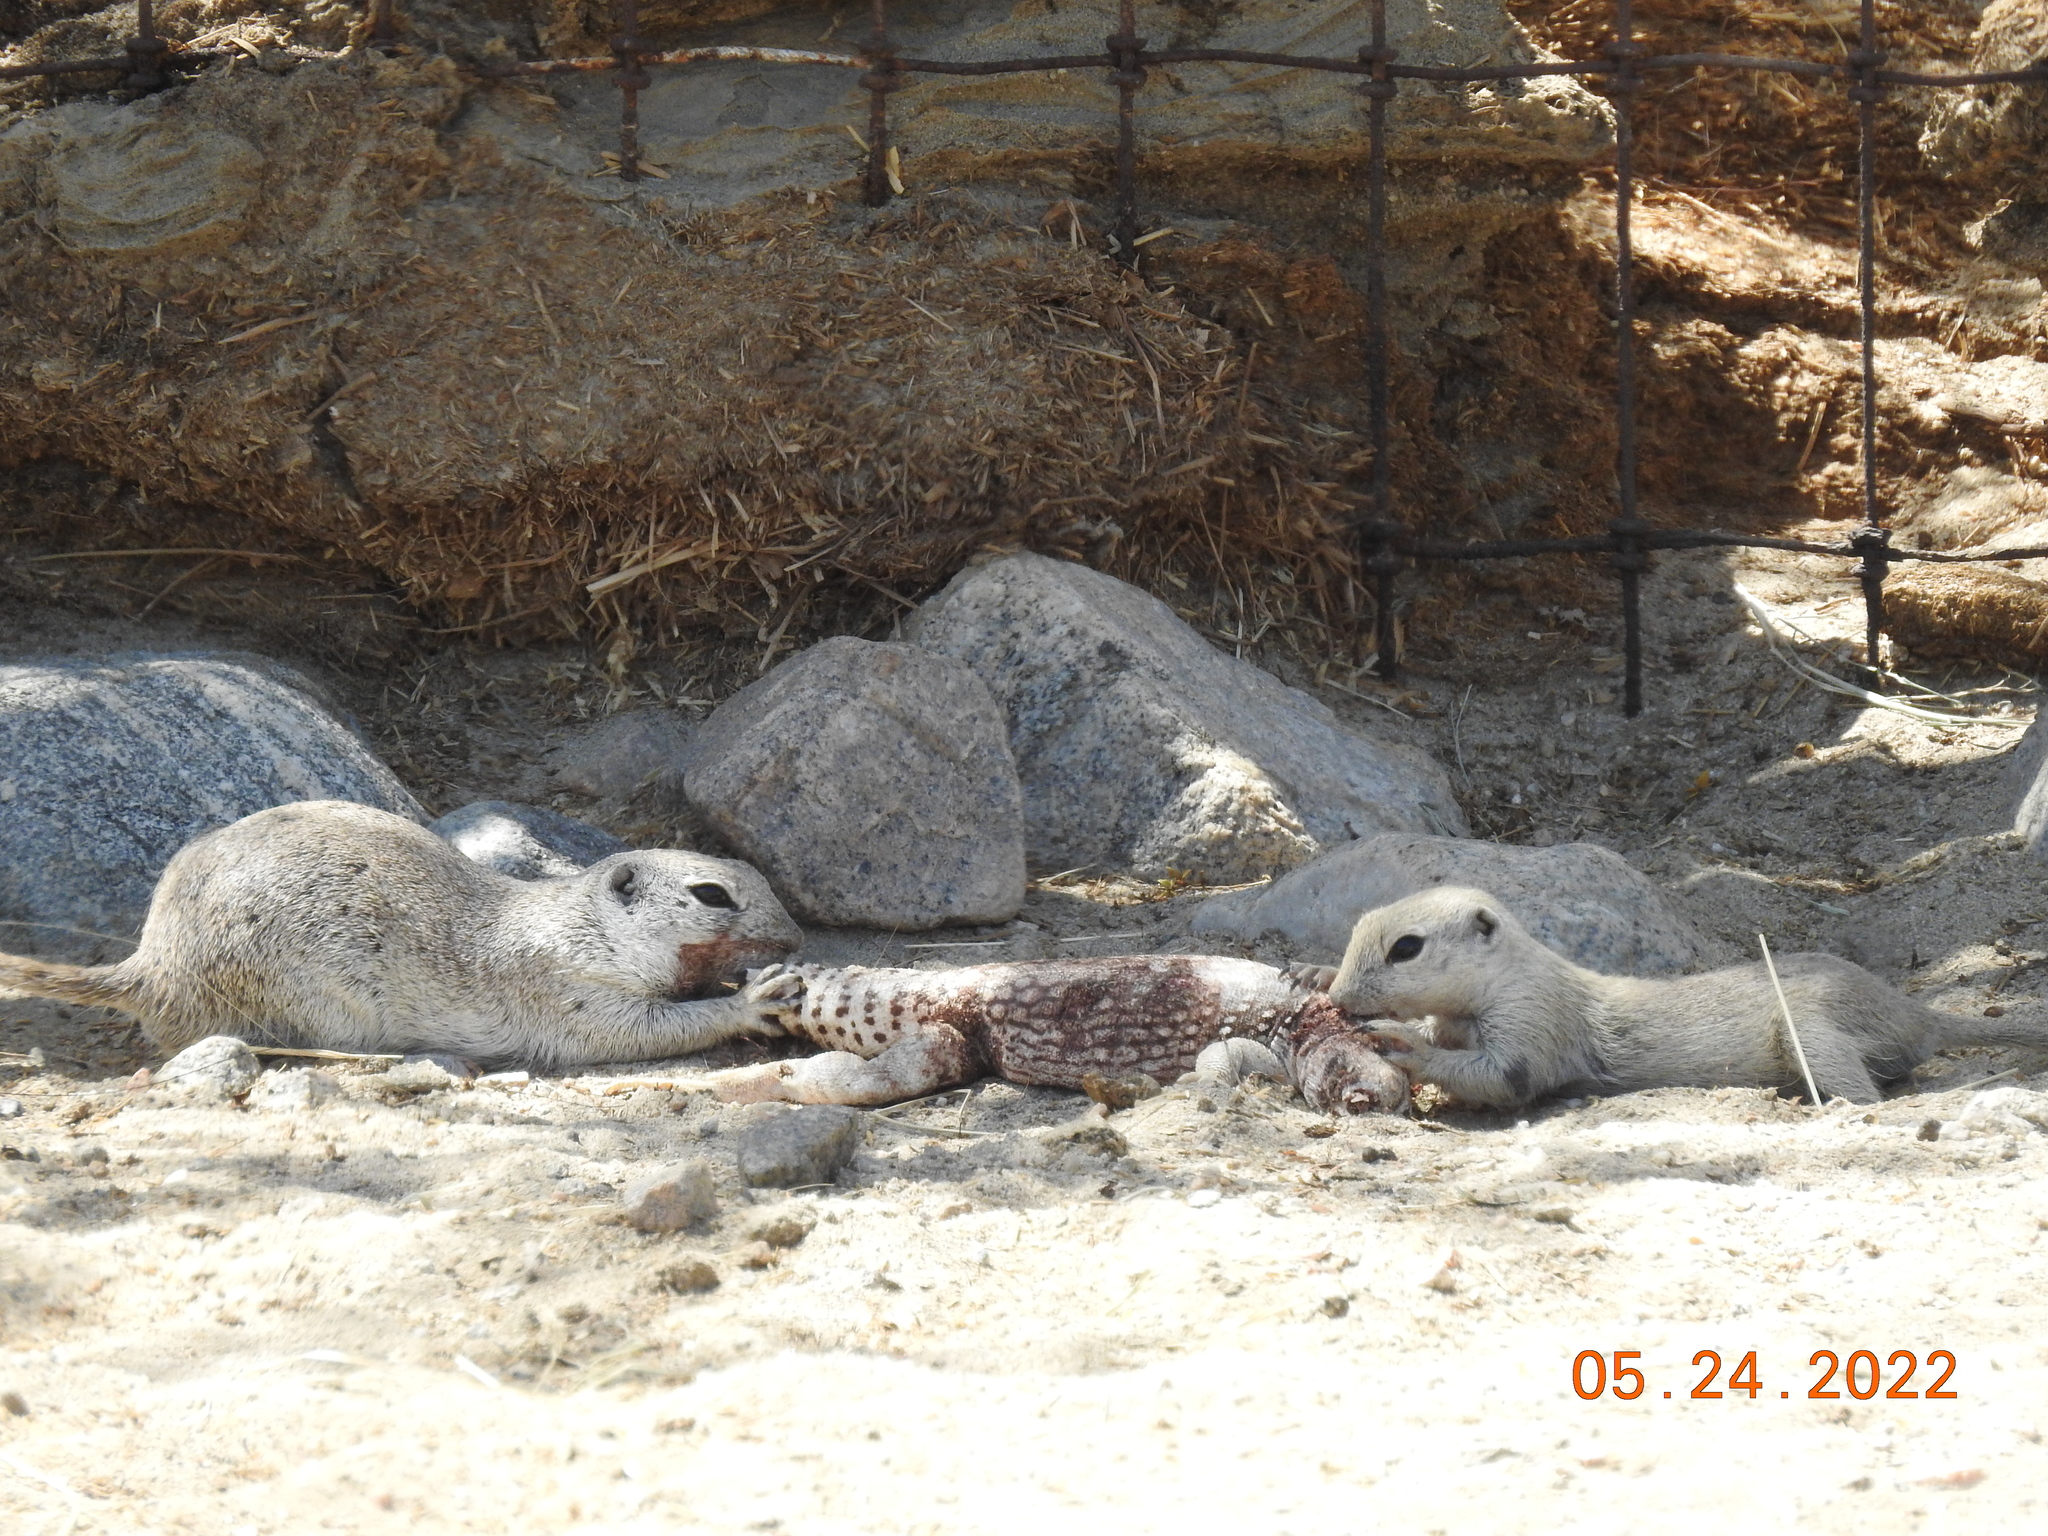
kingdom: Animalia
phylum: Chordata
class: Mammalia
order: Rodentia
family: Sciuridae
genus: Xerospermophilus
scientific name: Xerospermophilus tereticaudus
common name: Round-tailed ground squirrel
